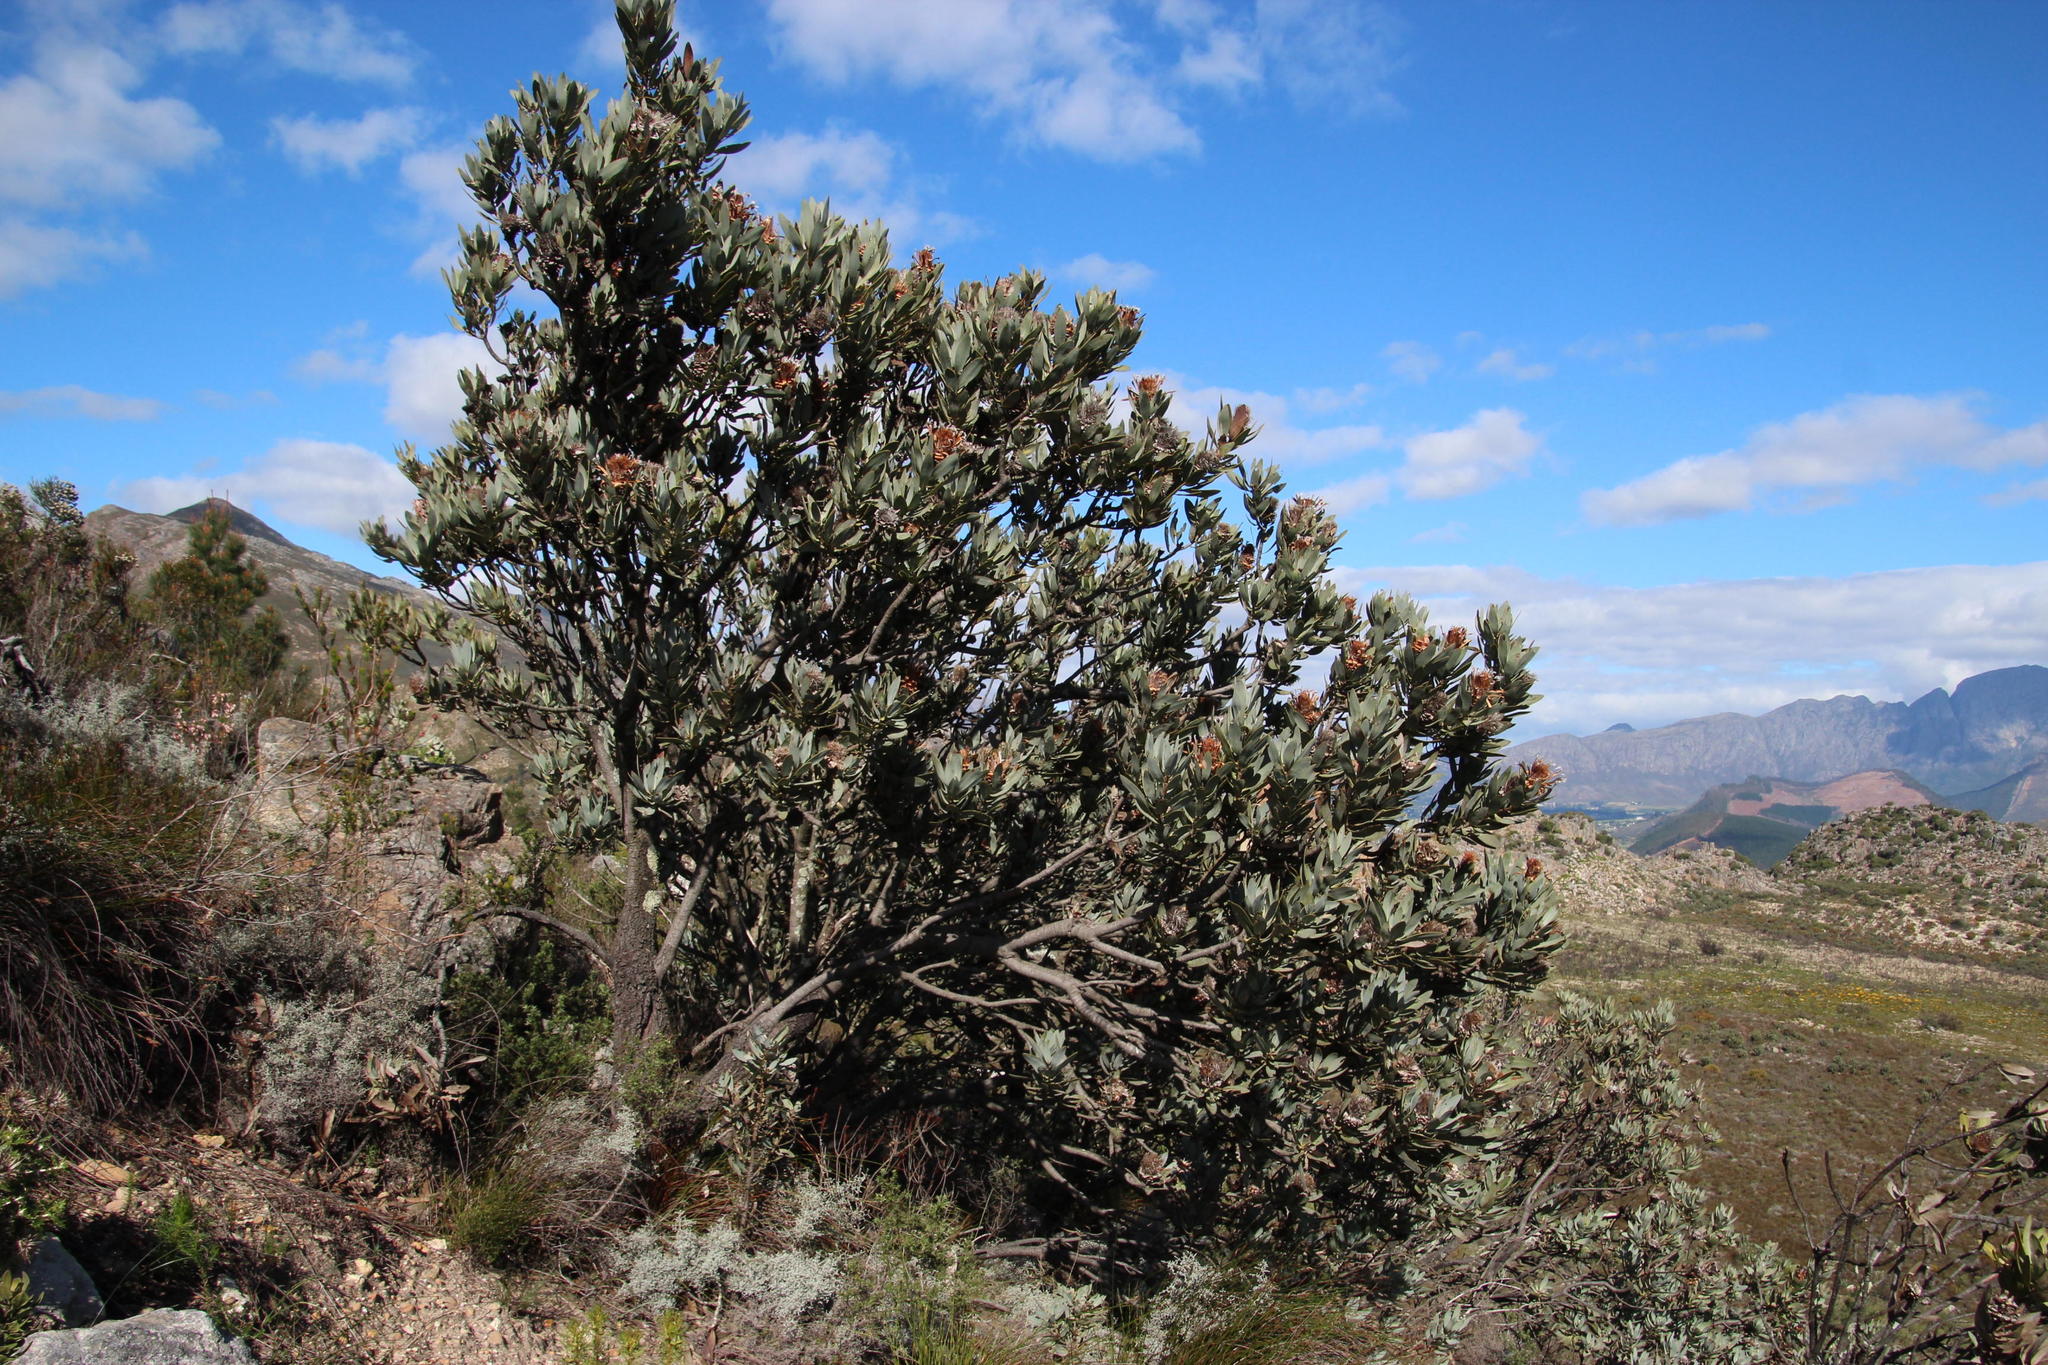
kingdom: Plantae
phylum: Tracheophyta
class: Magnoliopsida
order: Proteales
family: Proteaceae
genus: Protea
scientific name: Protea laurifolia
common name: Grey-leaf sugarbsh
